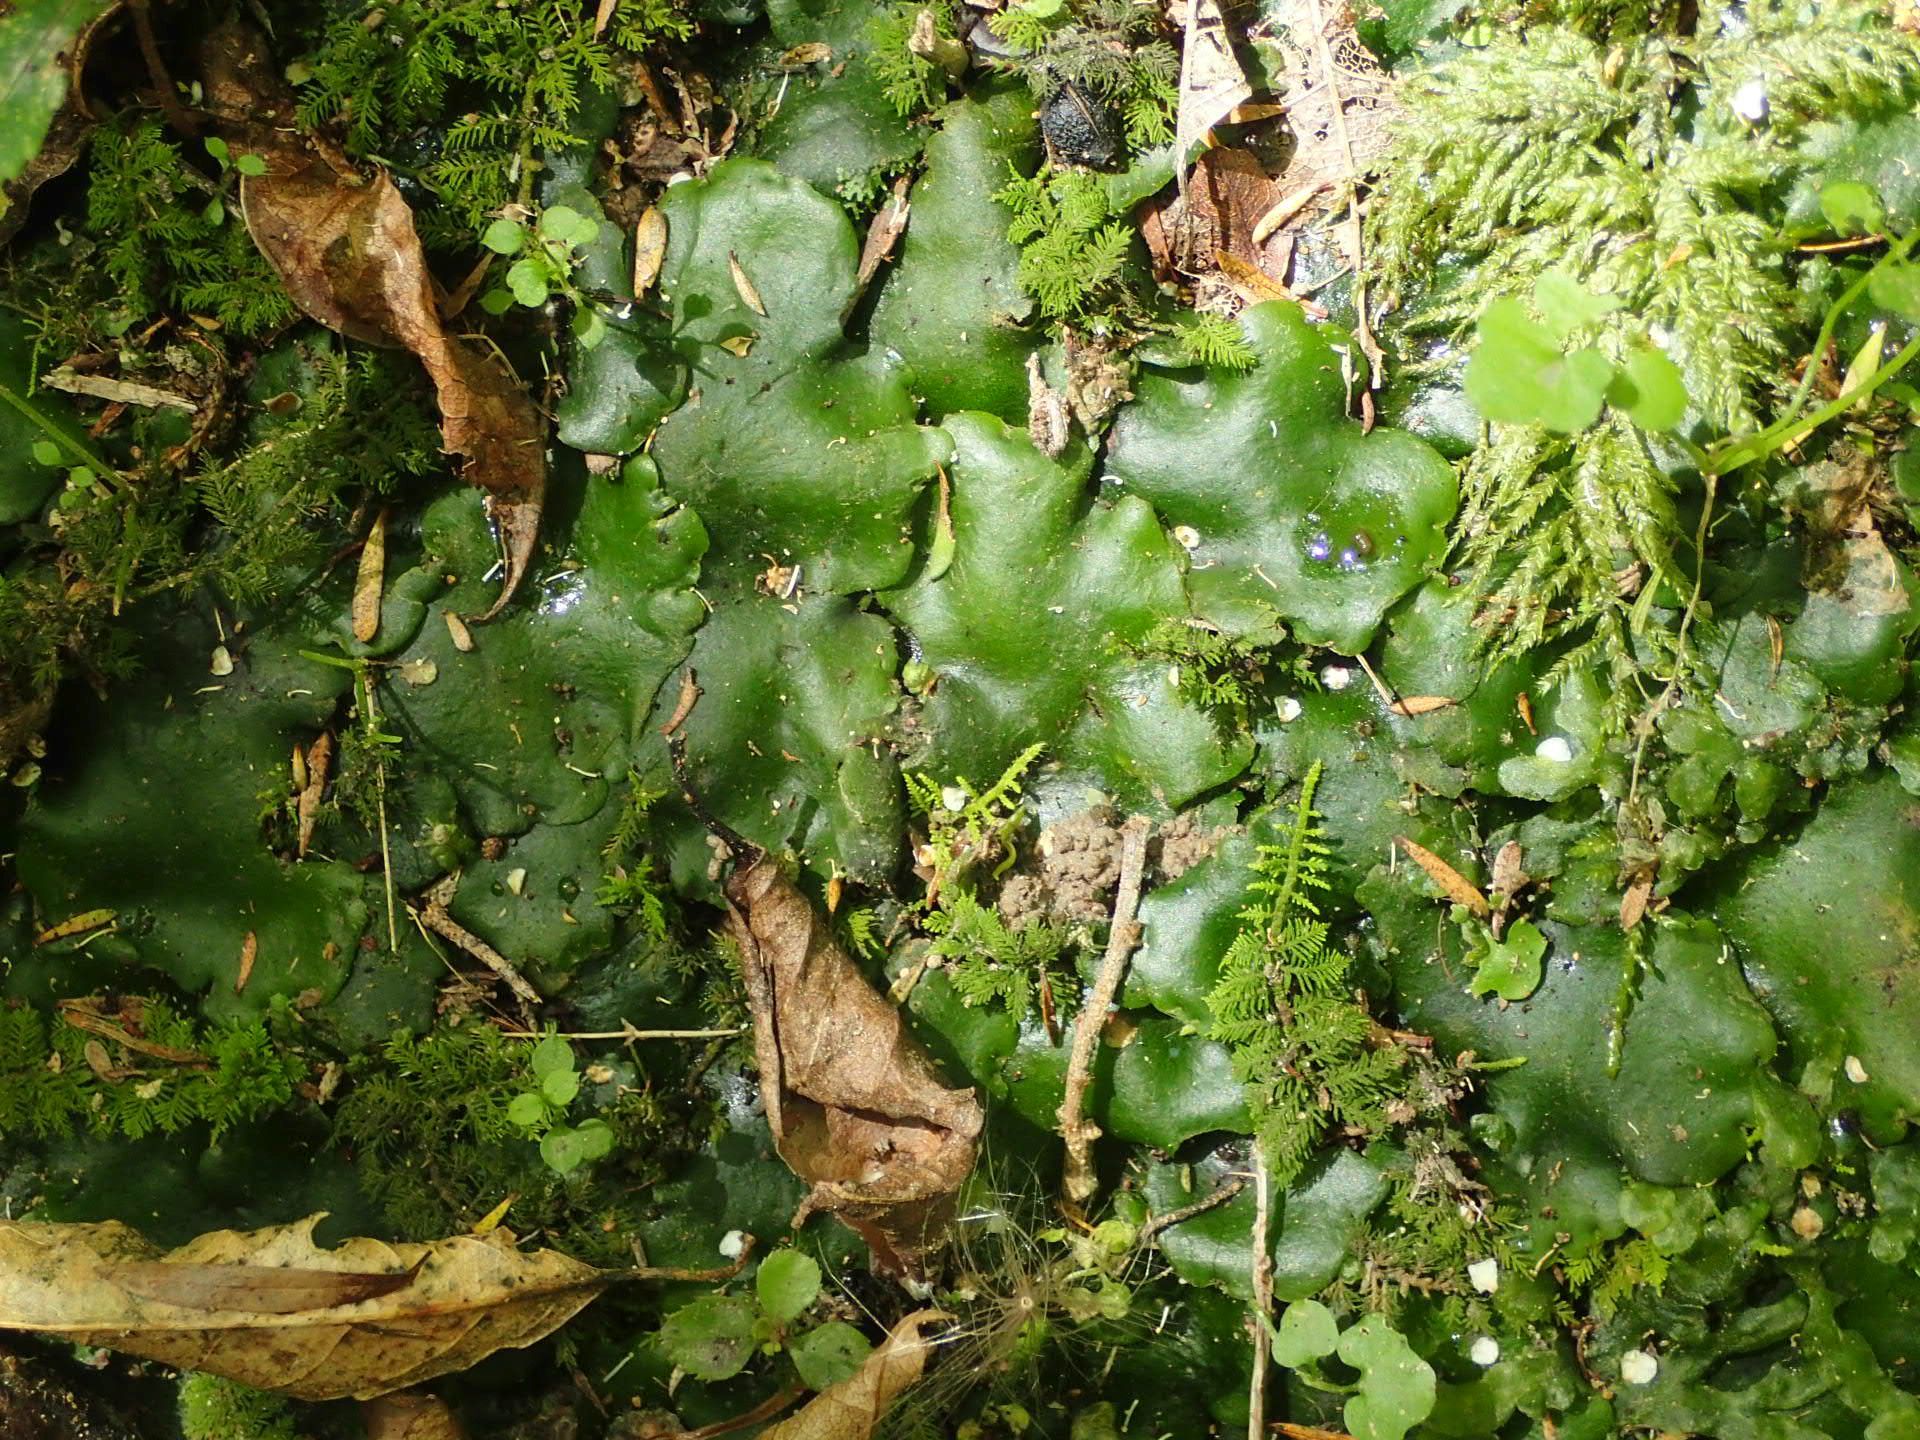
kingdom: Plantae
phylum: Marchantiophyta
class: Marchantiopsida
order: Marchantiales
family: Monocleaceae
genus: Monoclea
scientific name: Monoclea forsteri
